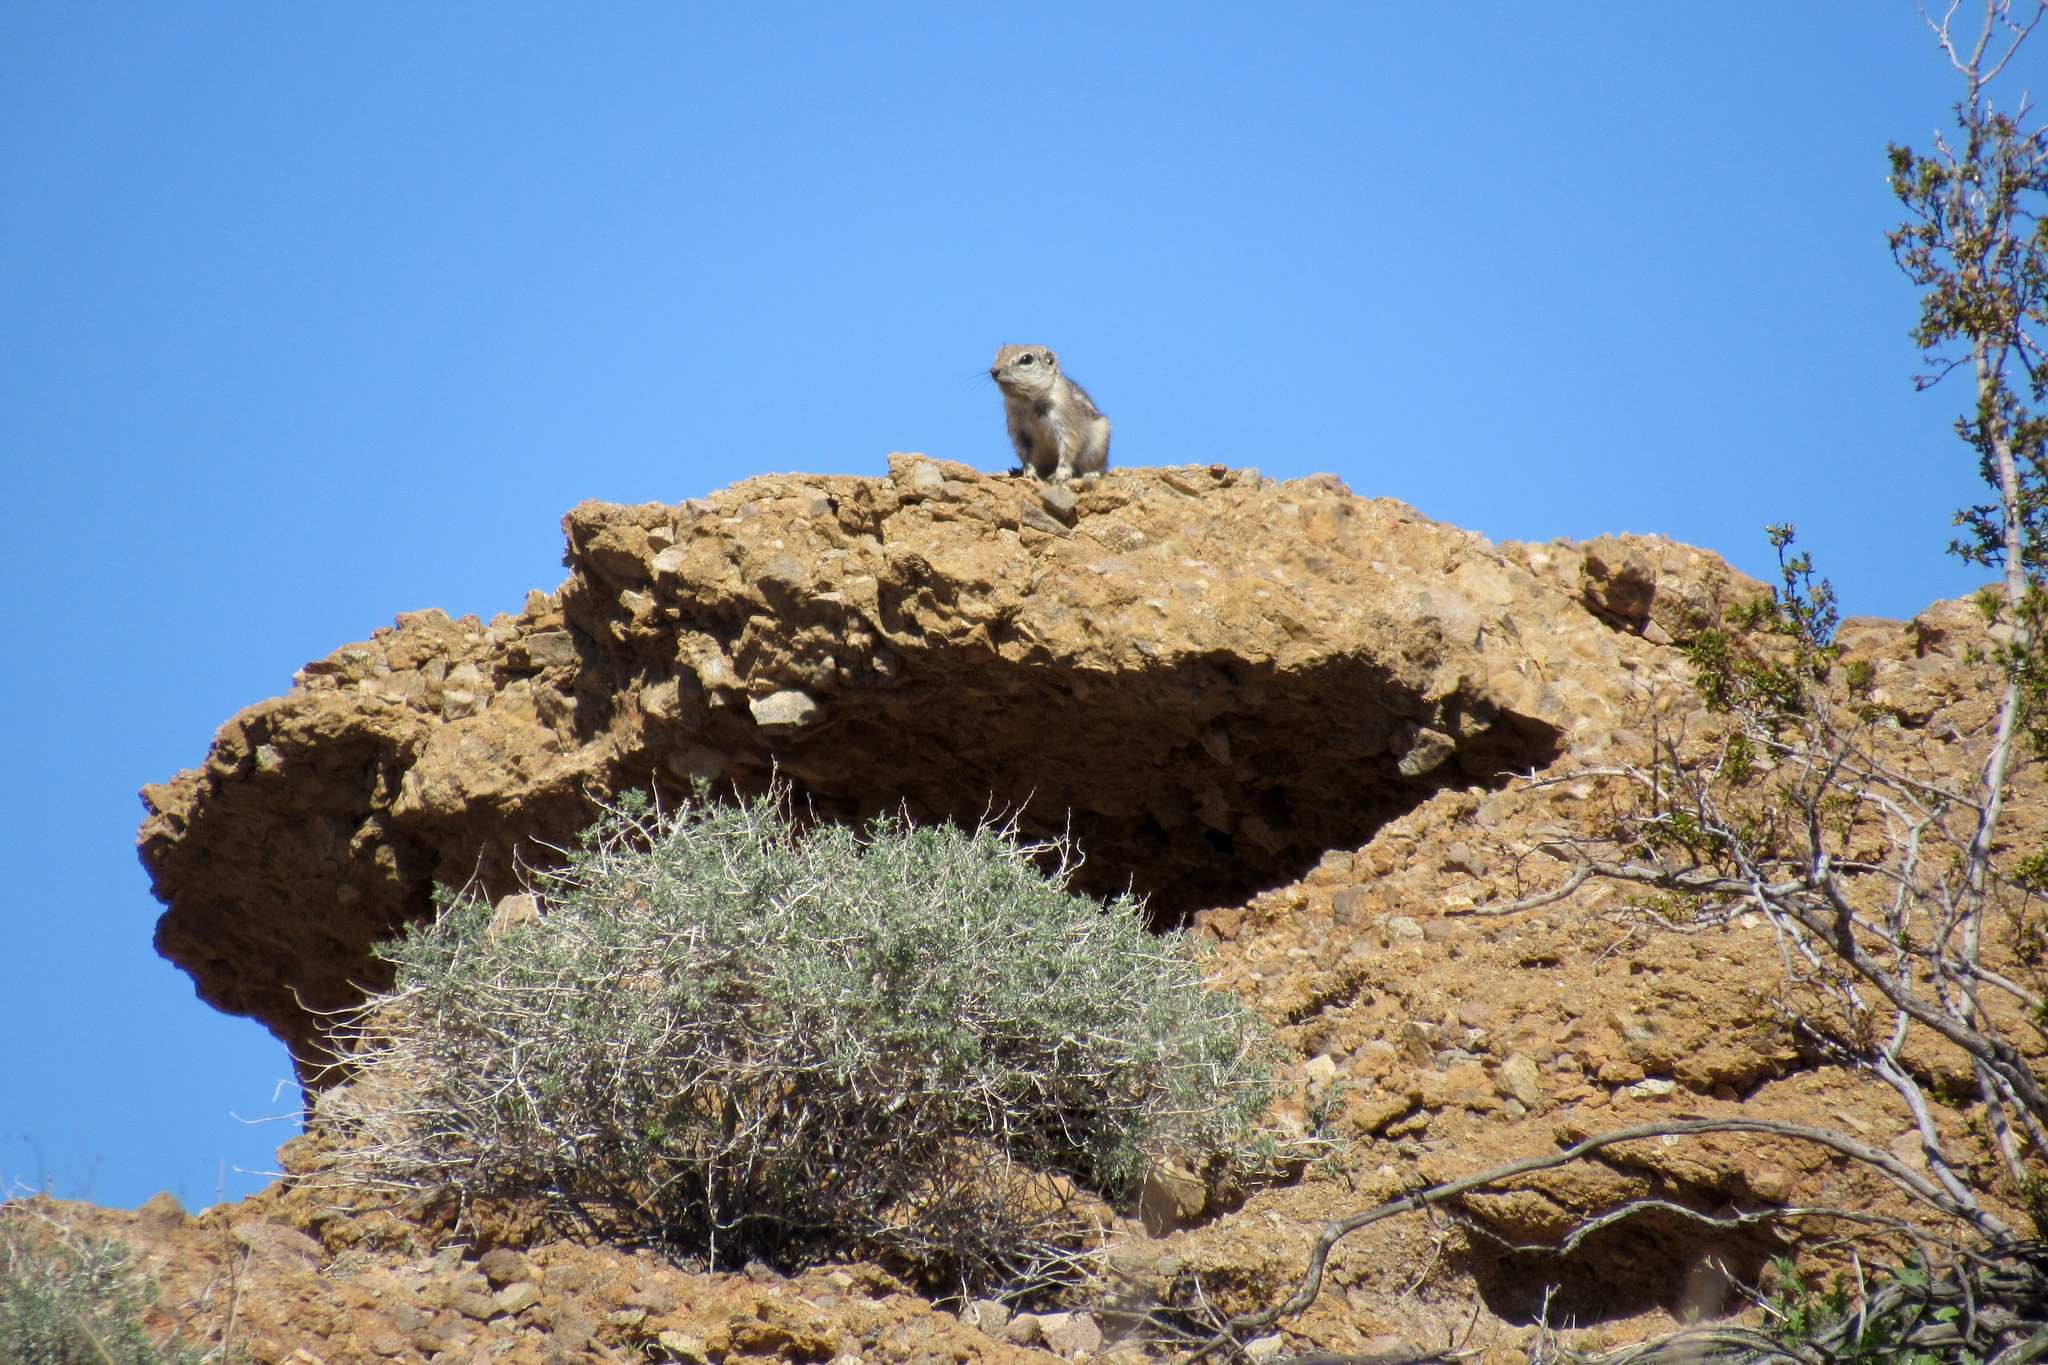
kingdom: Animalia
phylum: Chordata
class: Mammalia
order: Rodentia
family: Sciuridae
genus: Ammospermophilus
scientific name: Ammospermophilus harrisii
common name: Harris's antelope squirrel
